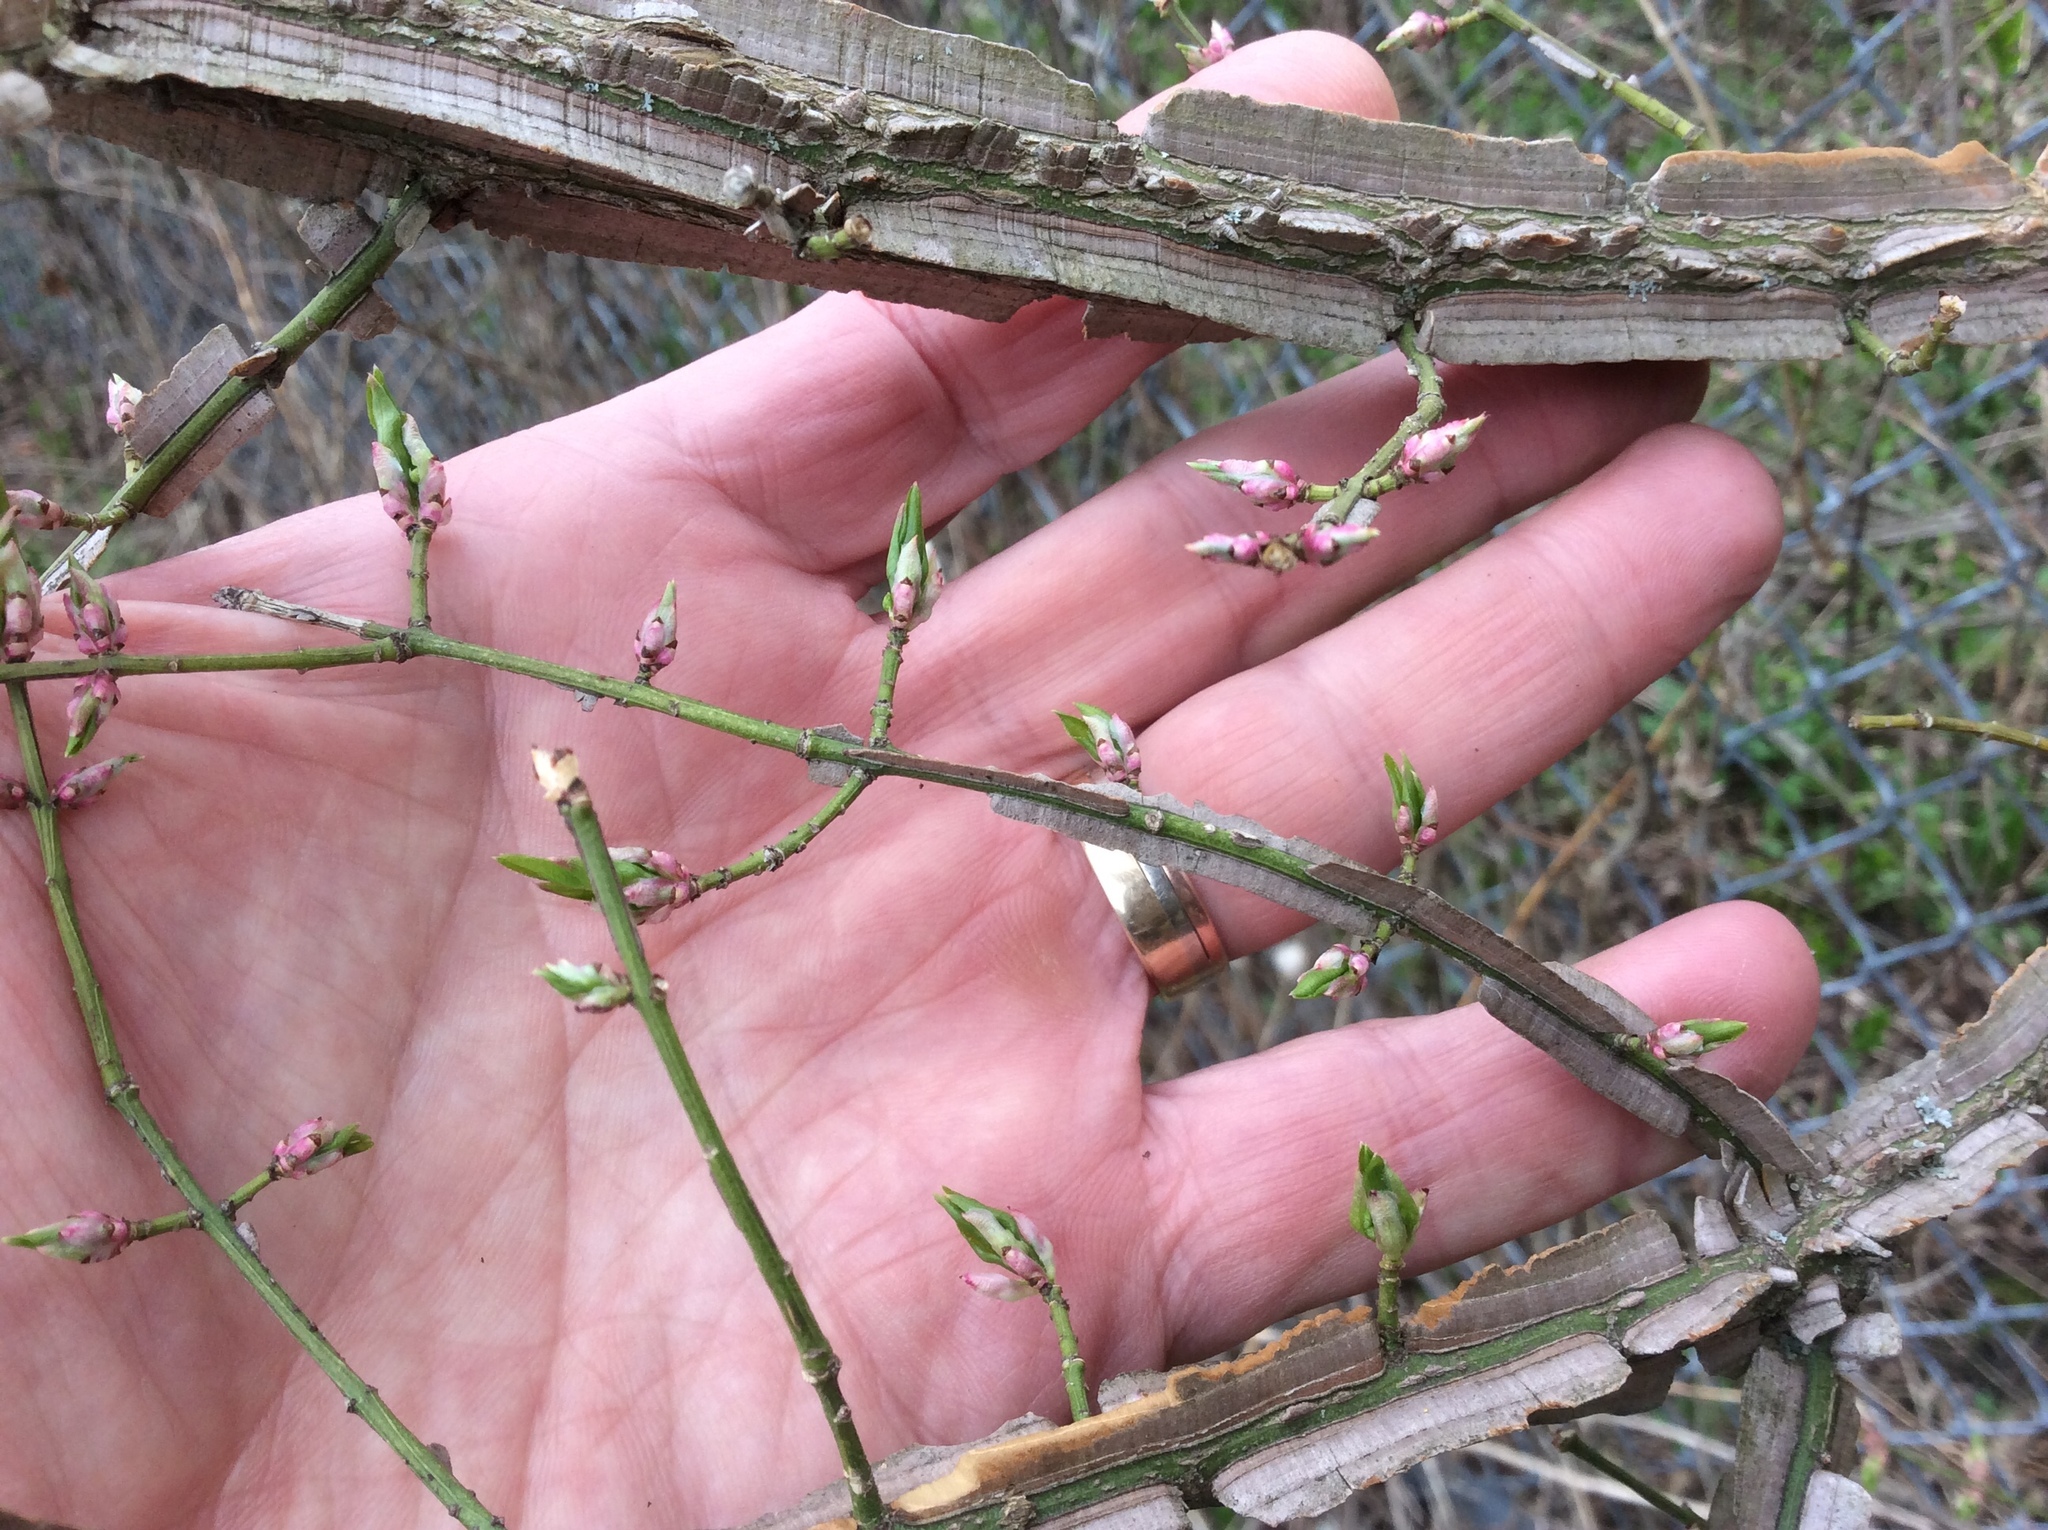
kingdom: Plantae
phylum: Tracheophyta
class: Magnoliopsida
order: Celastrales
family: Celastraceae
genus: Euonymus
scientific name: Euonymus alatus
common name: Winged euonymus
